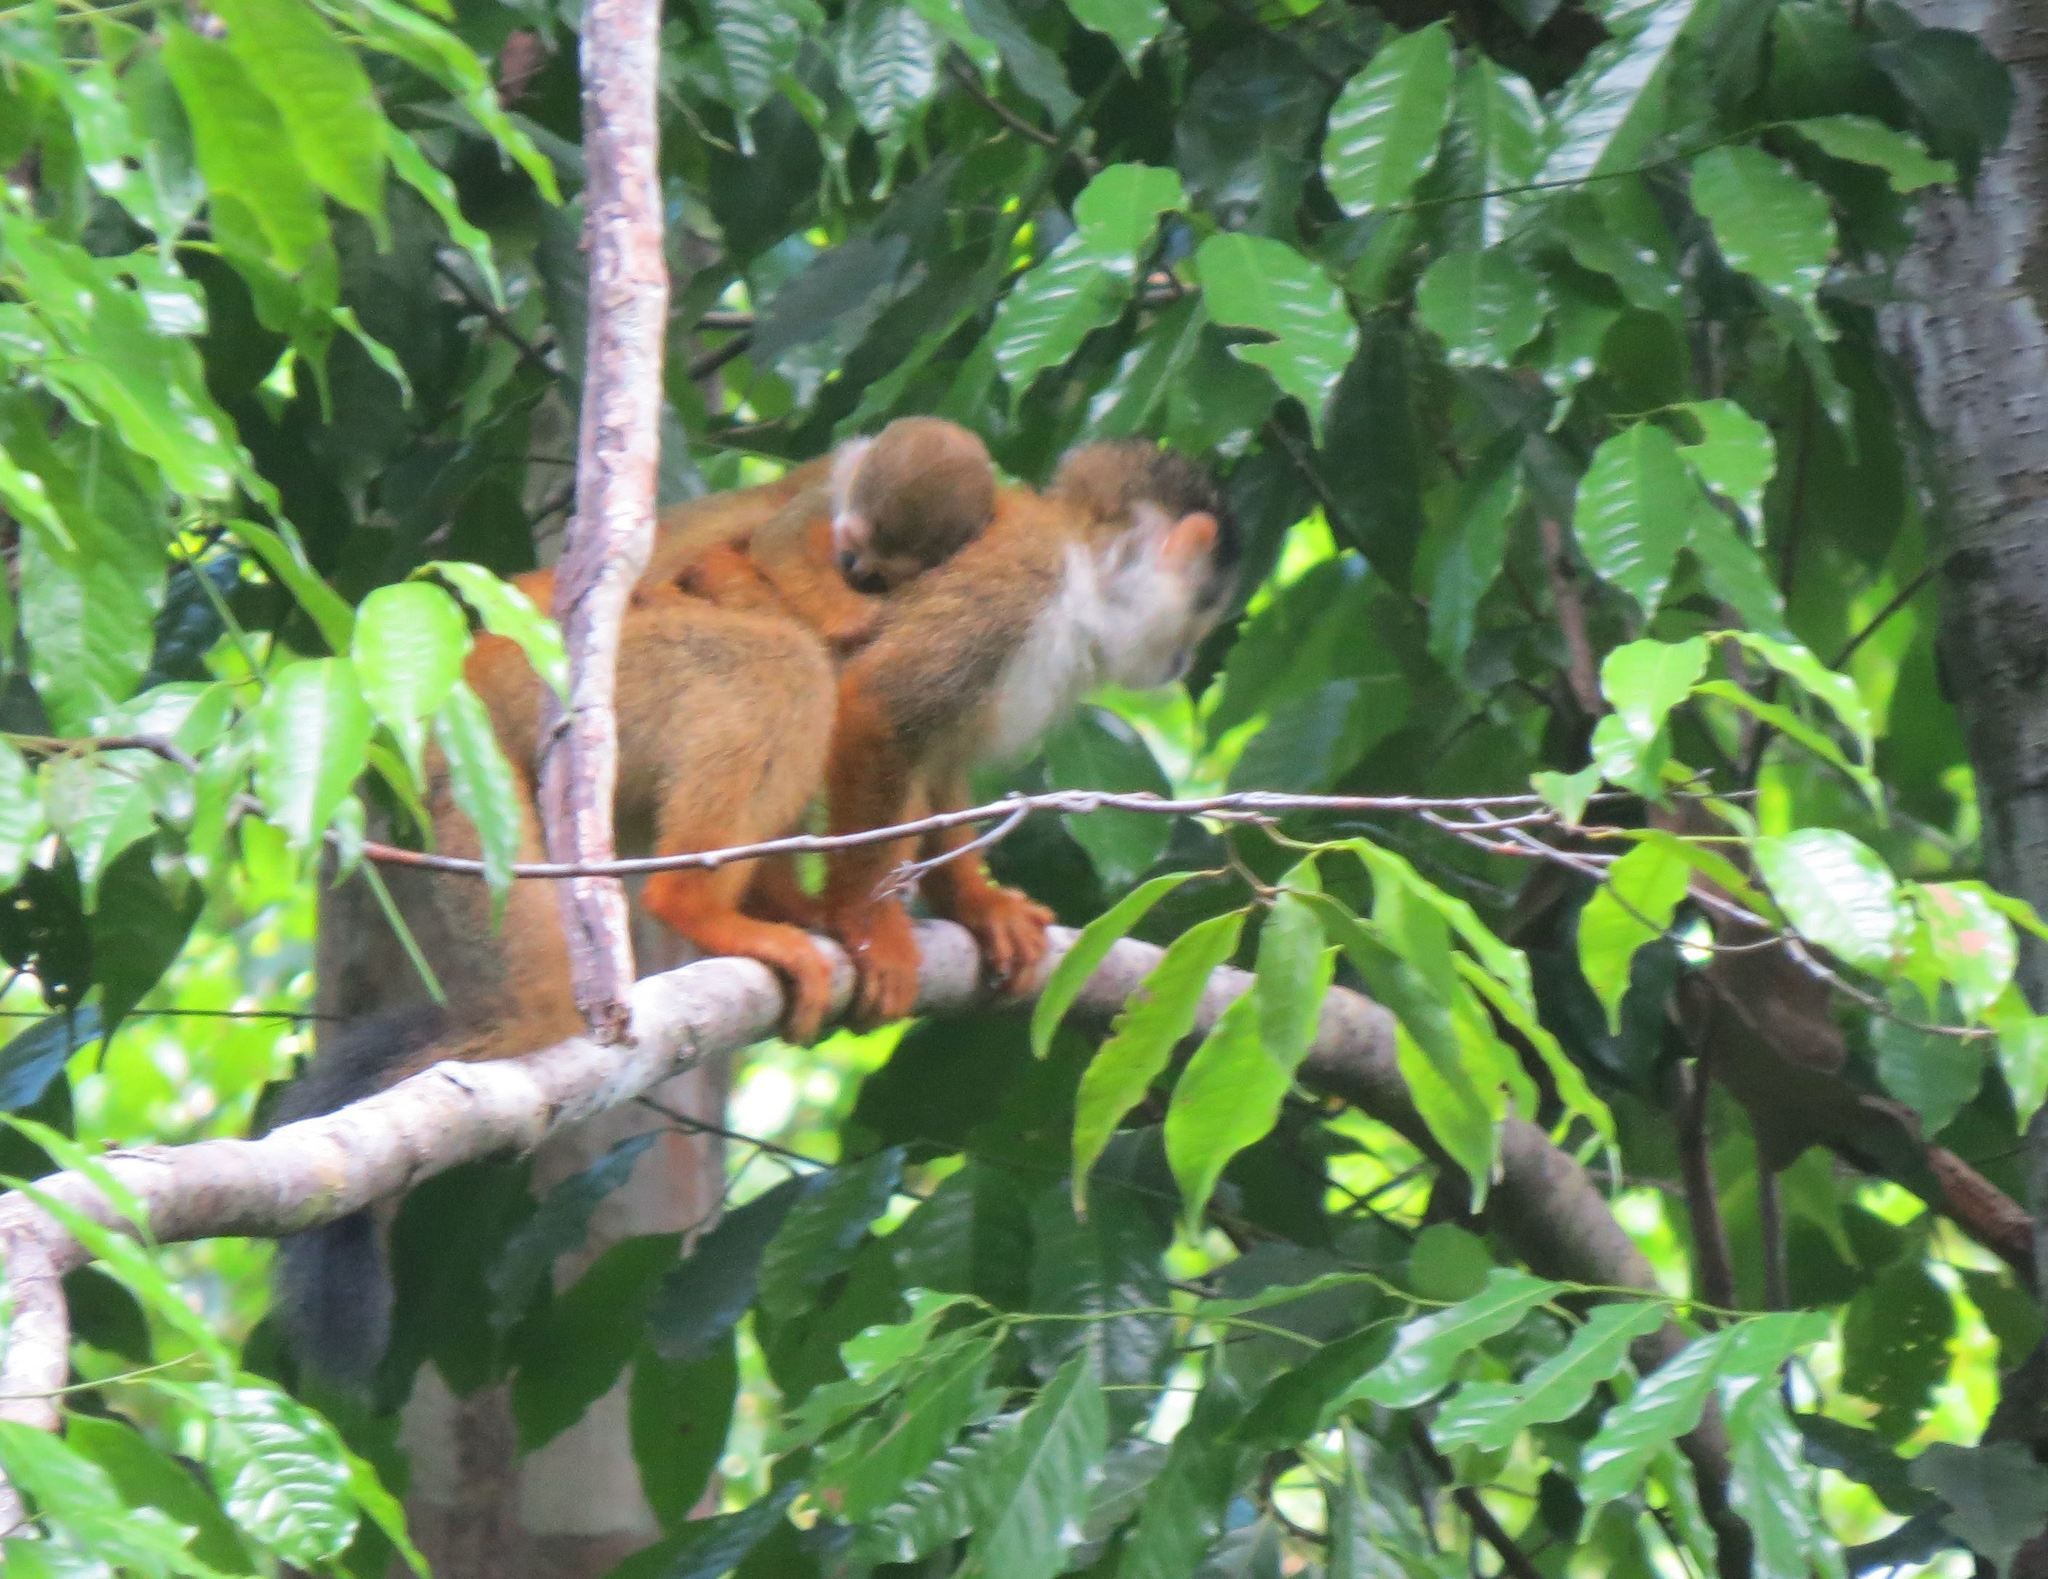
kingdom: Animalia
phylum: Chordata
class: Mammalia
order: Primates
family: Cebidae
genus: Saimiri
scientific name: Saimiri oerstedii
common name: Central american squirrel monkey
